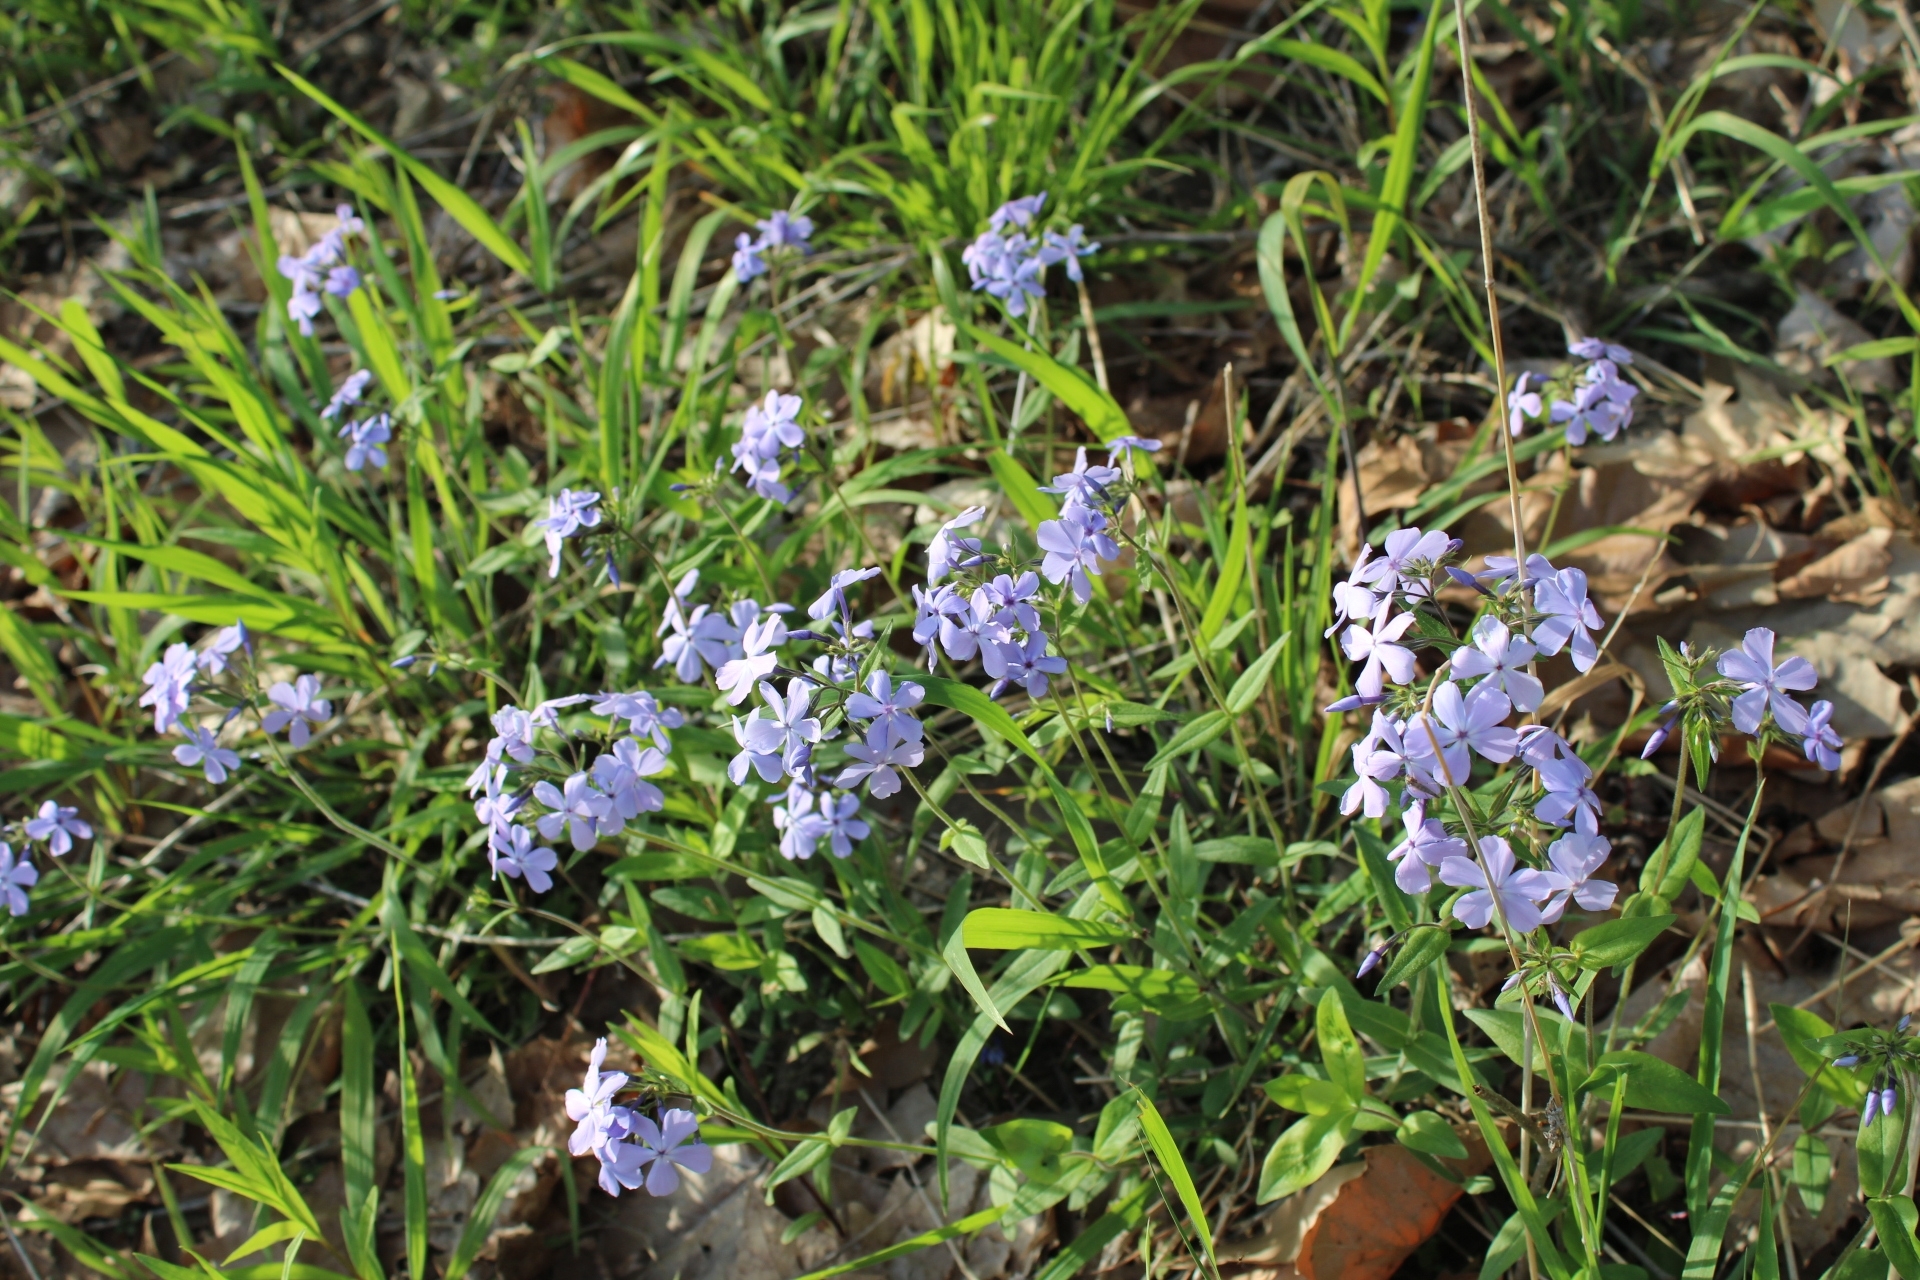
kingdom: Plantae
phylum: Tracheophyta
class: Magnoliopsida
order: Ericales
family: Polemoniaceae
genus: Phlox
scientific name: Phlox divaricata
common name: Blue phlox
